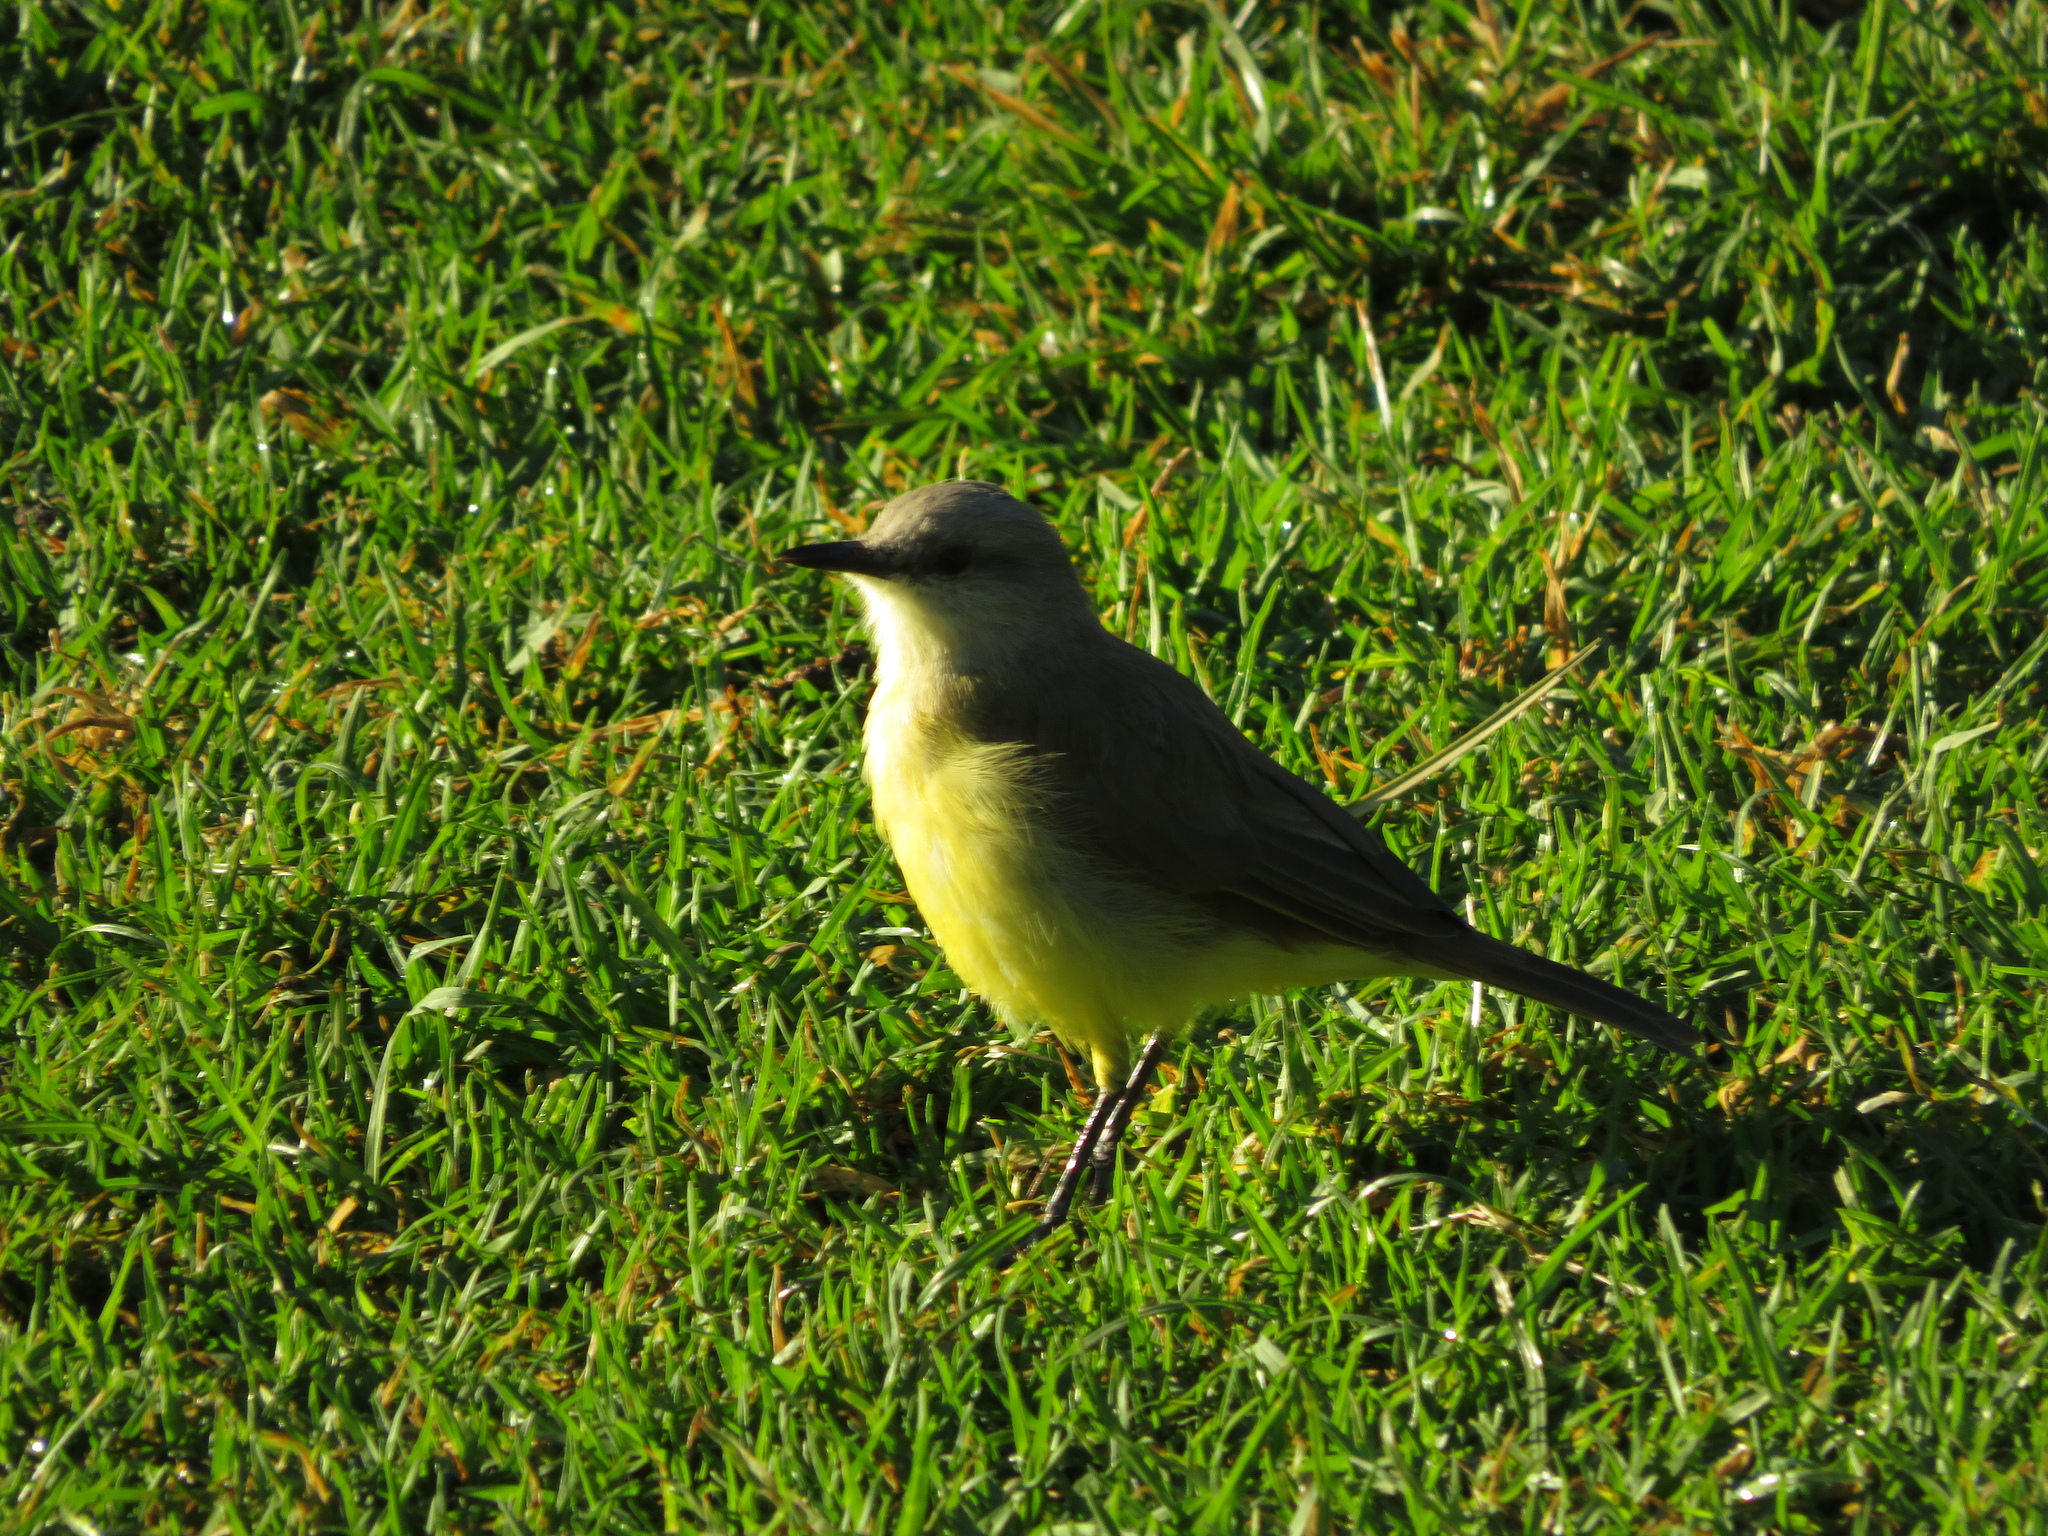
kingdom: Animalia
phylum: Chordata
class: Aves
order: Passeriformes
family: Tyrannidae
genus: Machetornis
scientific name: Machetornis rixosa
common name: Cattle tyrant
